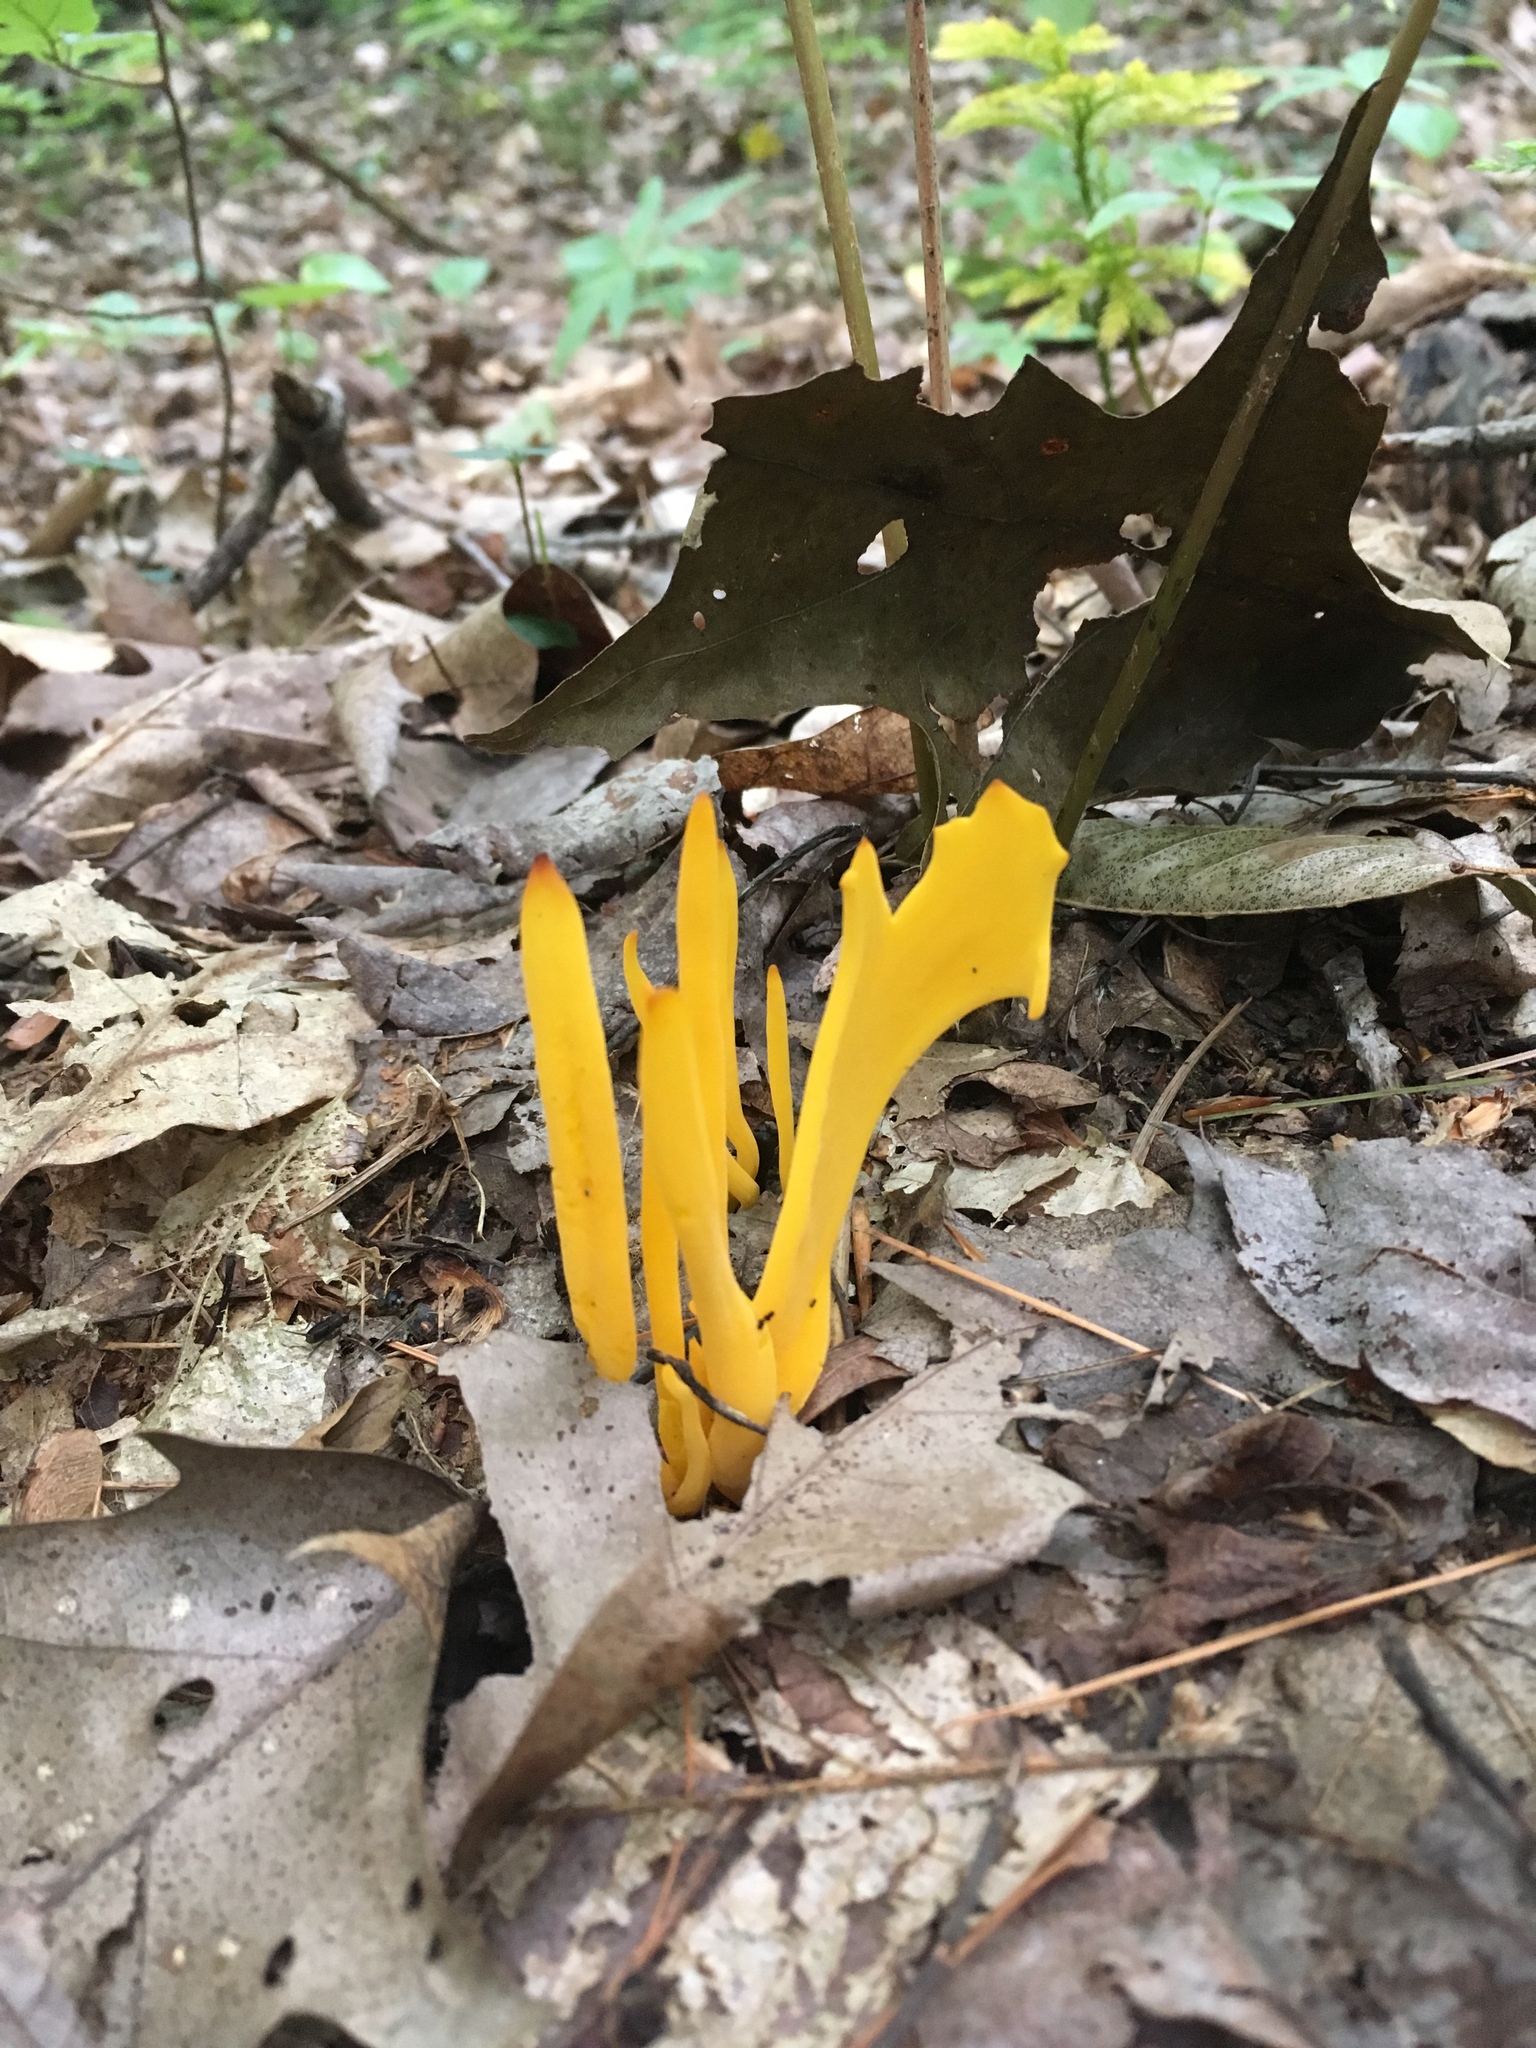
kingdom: Fungi
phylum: Basidiomycota
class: Agaricomycetes
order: Agaricales
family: Clavariaceae
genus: Clavulinopsis
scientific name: Clavulinopsis fusiformis
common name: Golden spindles
